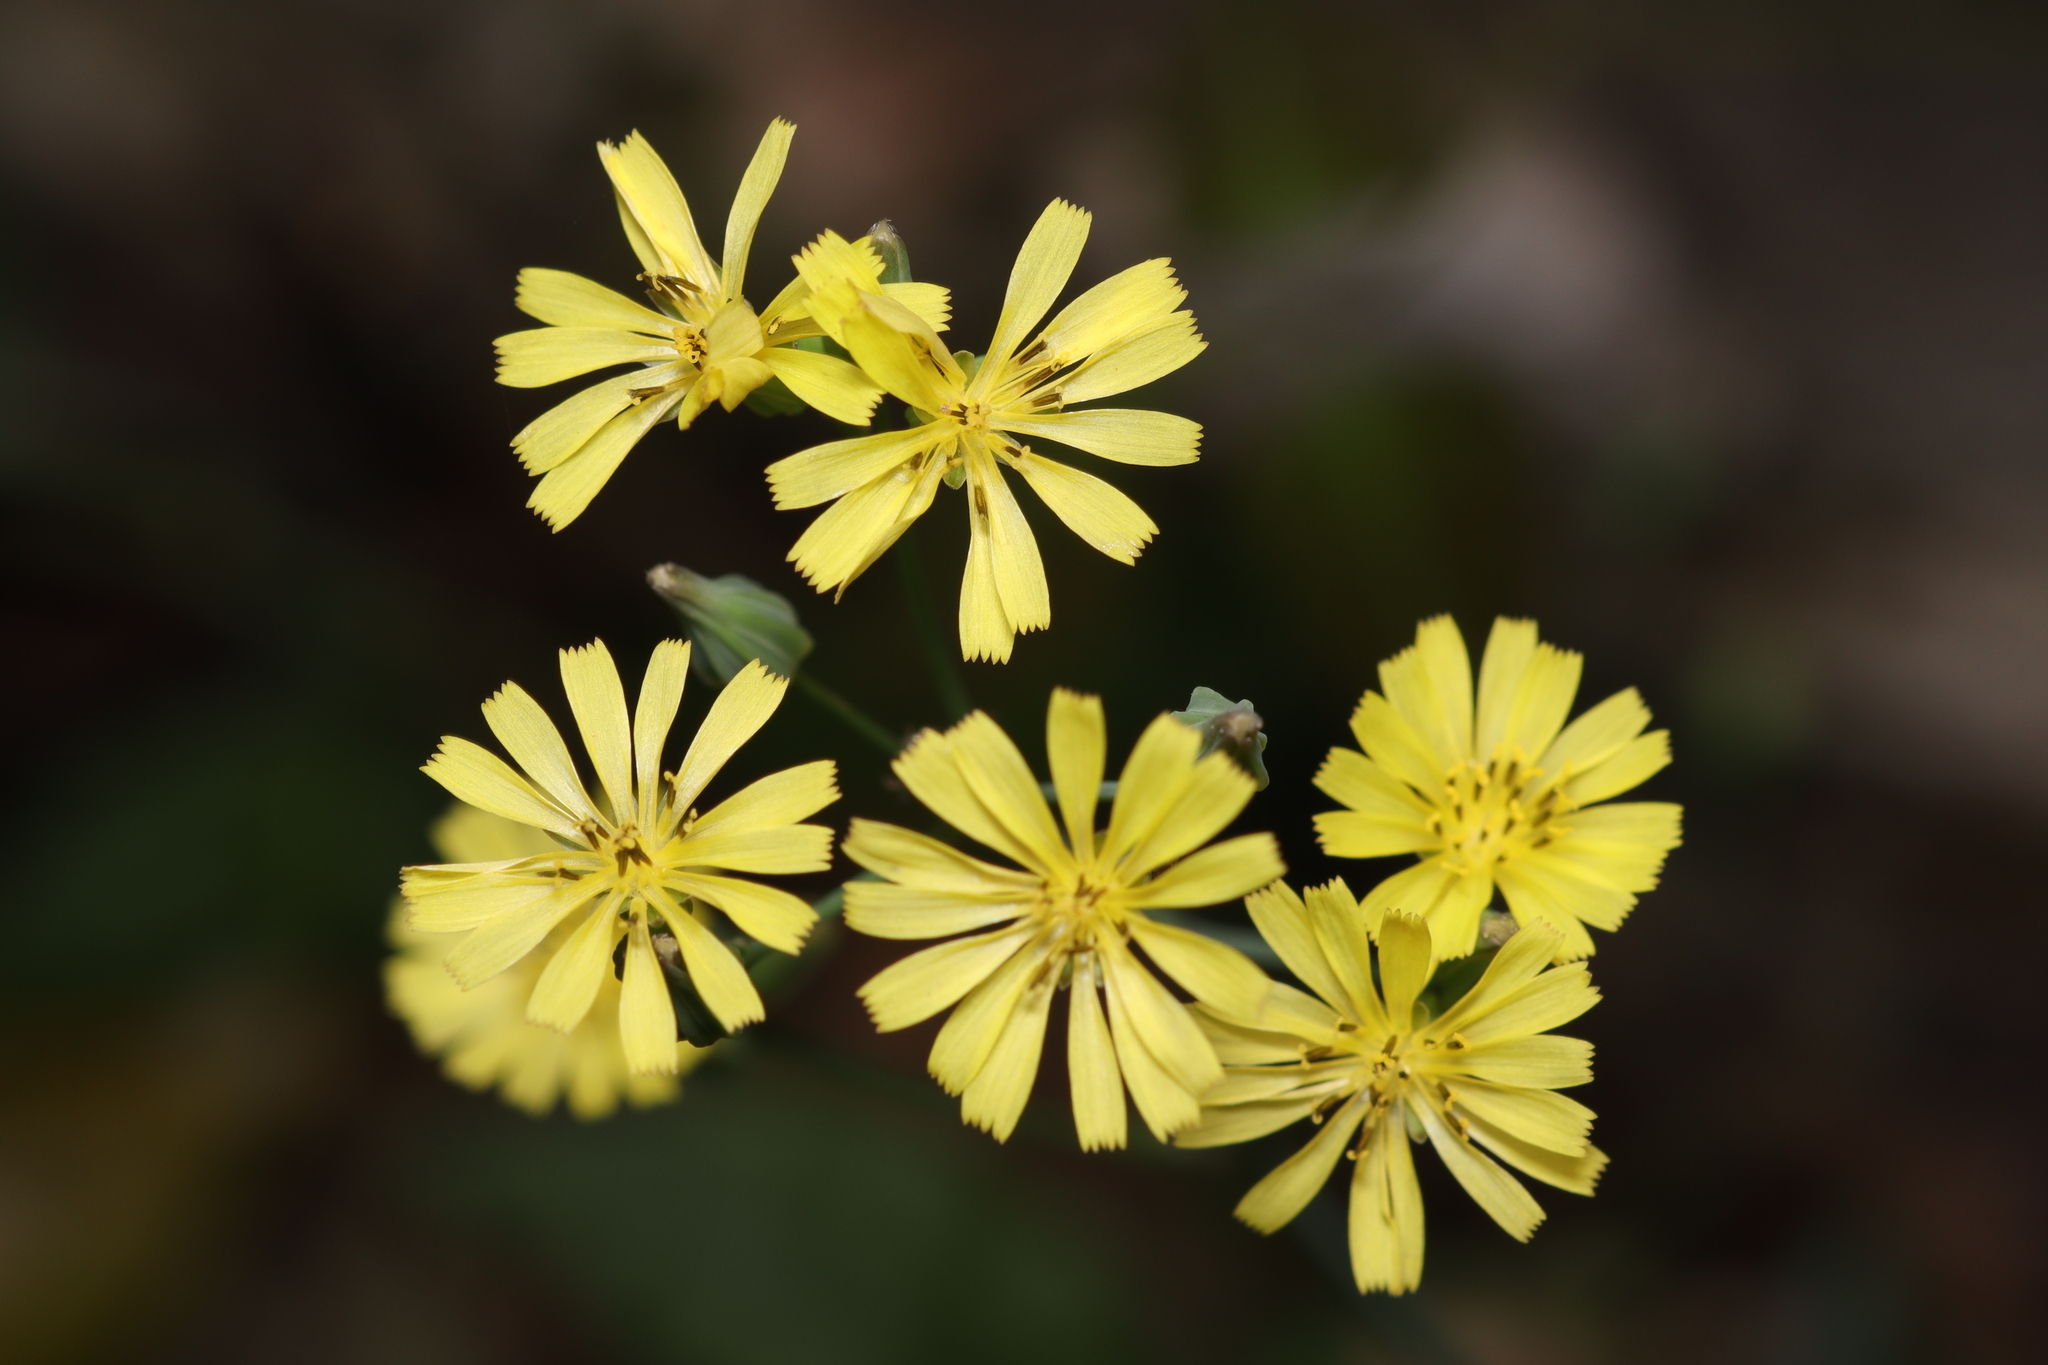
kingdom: Plantae
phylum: Tracheophyta
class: Magnoliopsida
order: Asterales
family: Asteraceae
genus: Youngia
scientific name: Youngia japonica
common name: Oriental false hawksbeard
